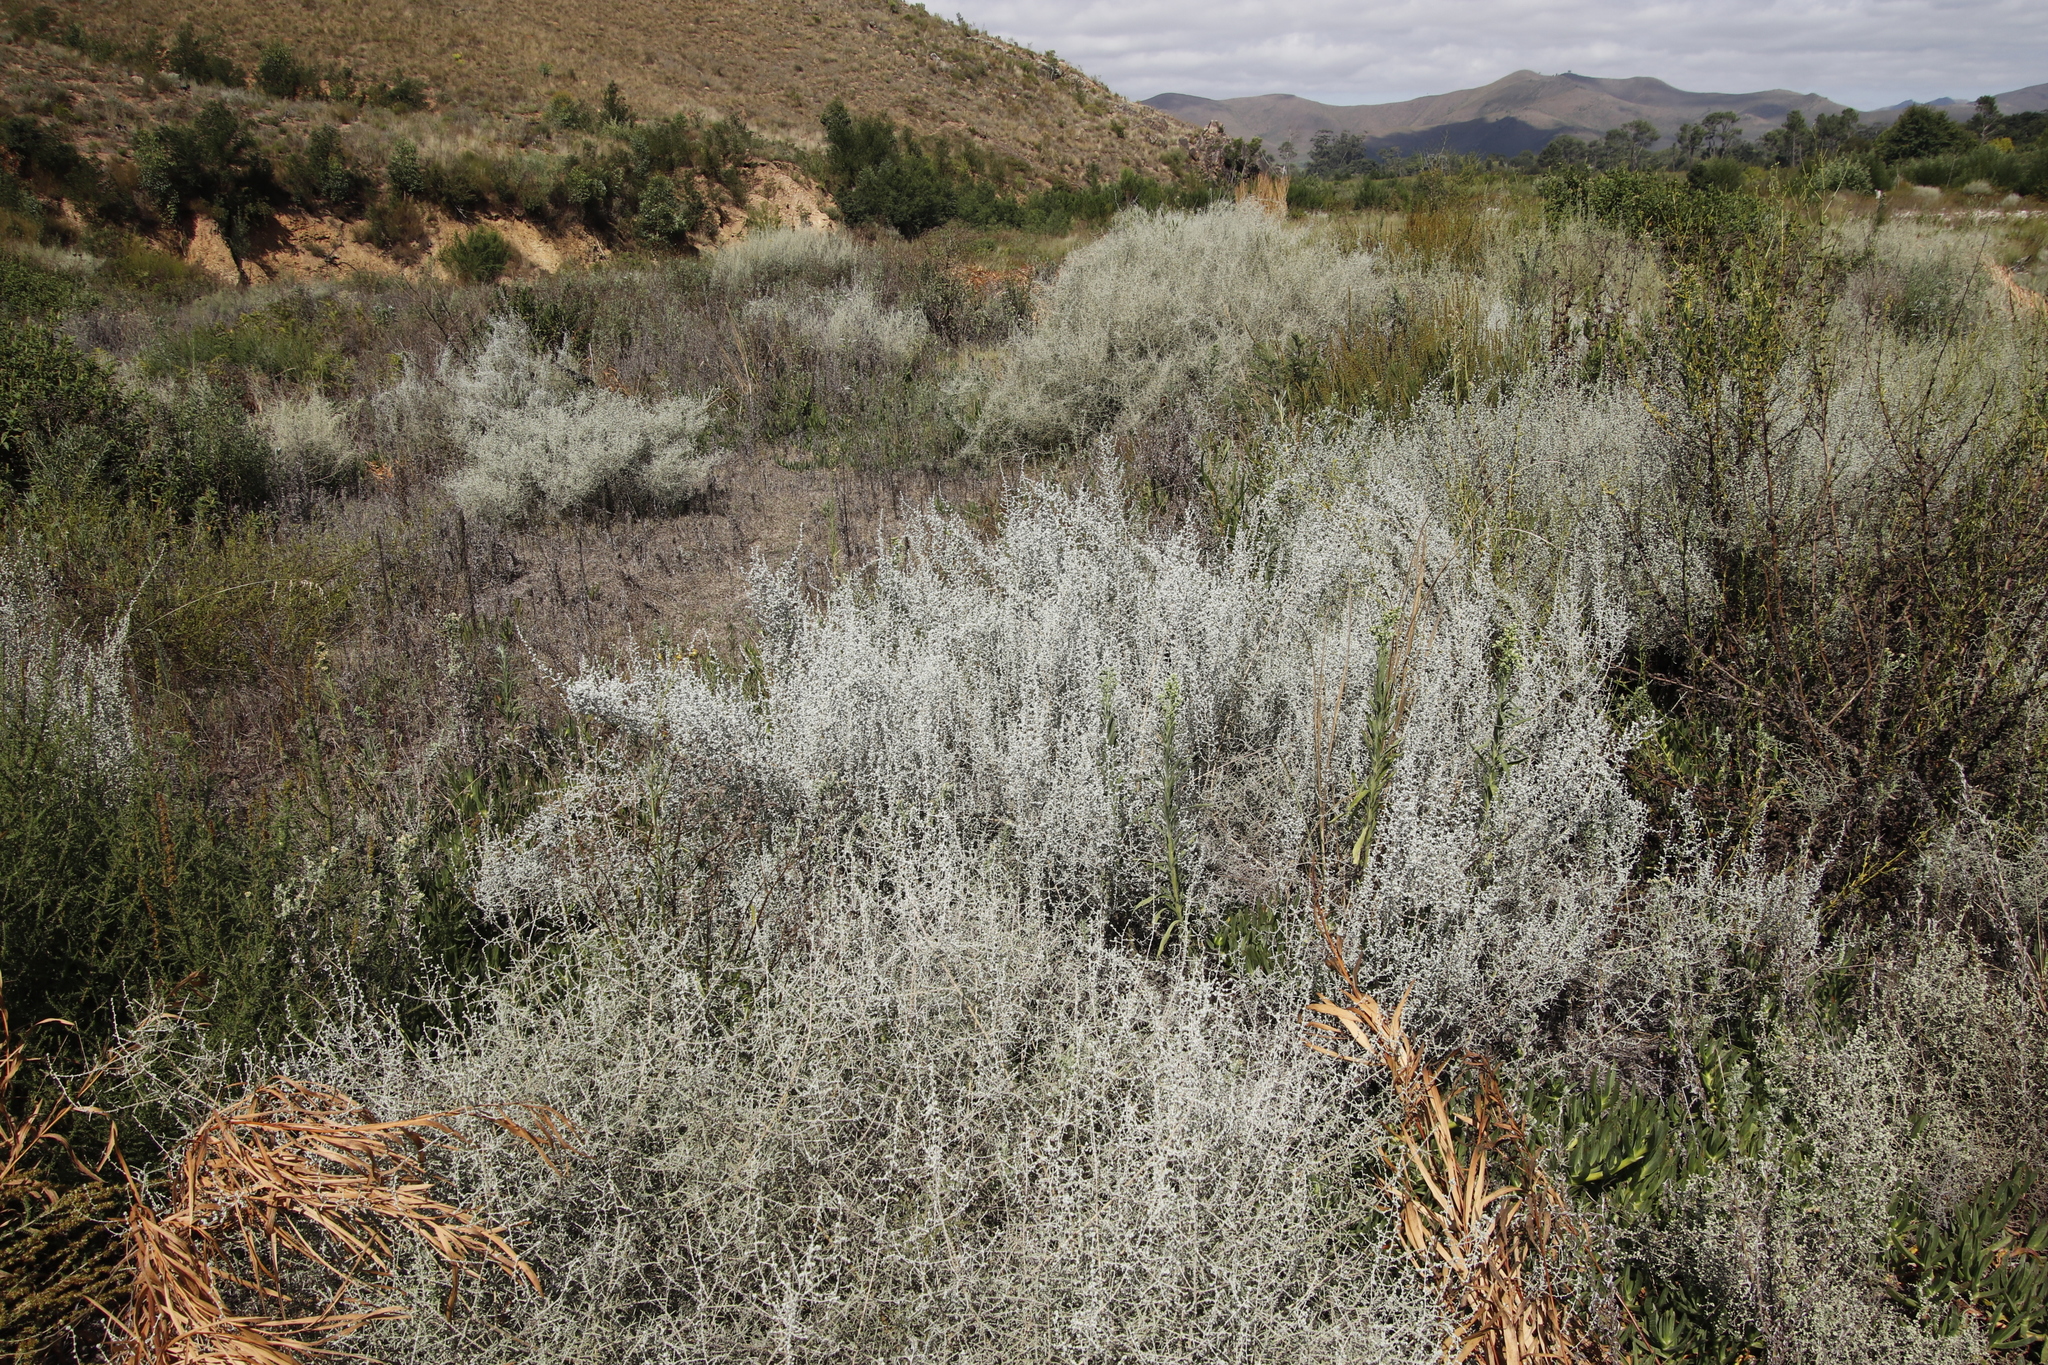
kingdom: Plantae
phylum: Tracheophyta
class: Magnoliopsida
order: Asterales
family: Asteraceae
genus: Seriphium
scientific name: Seriphium plumosum
